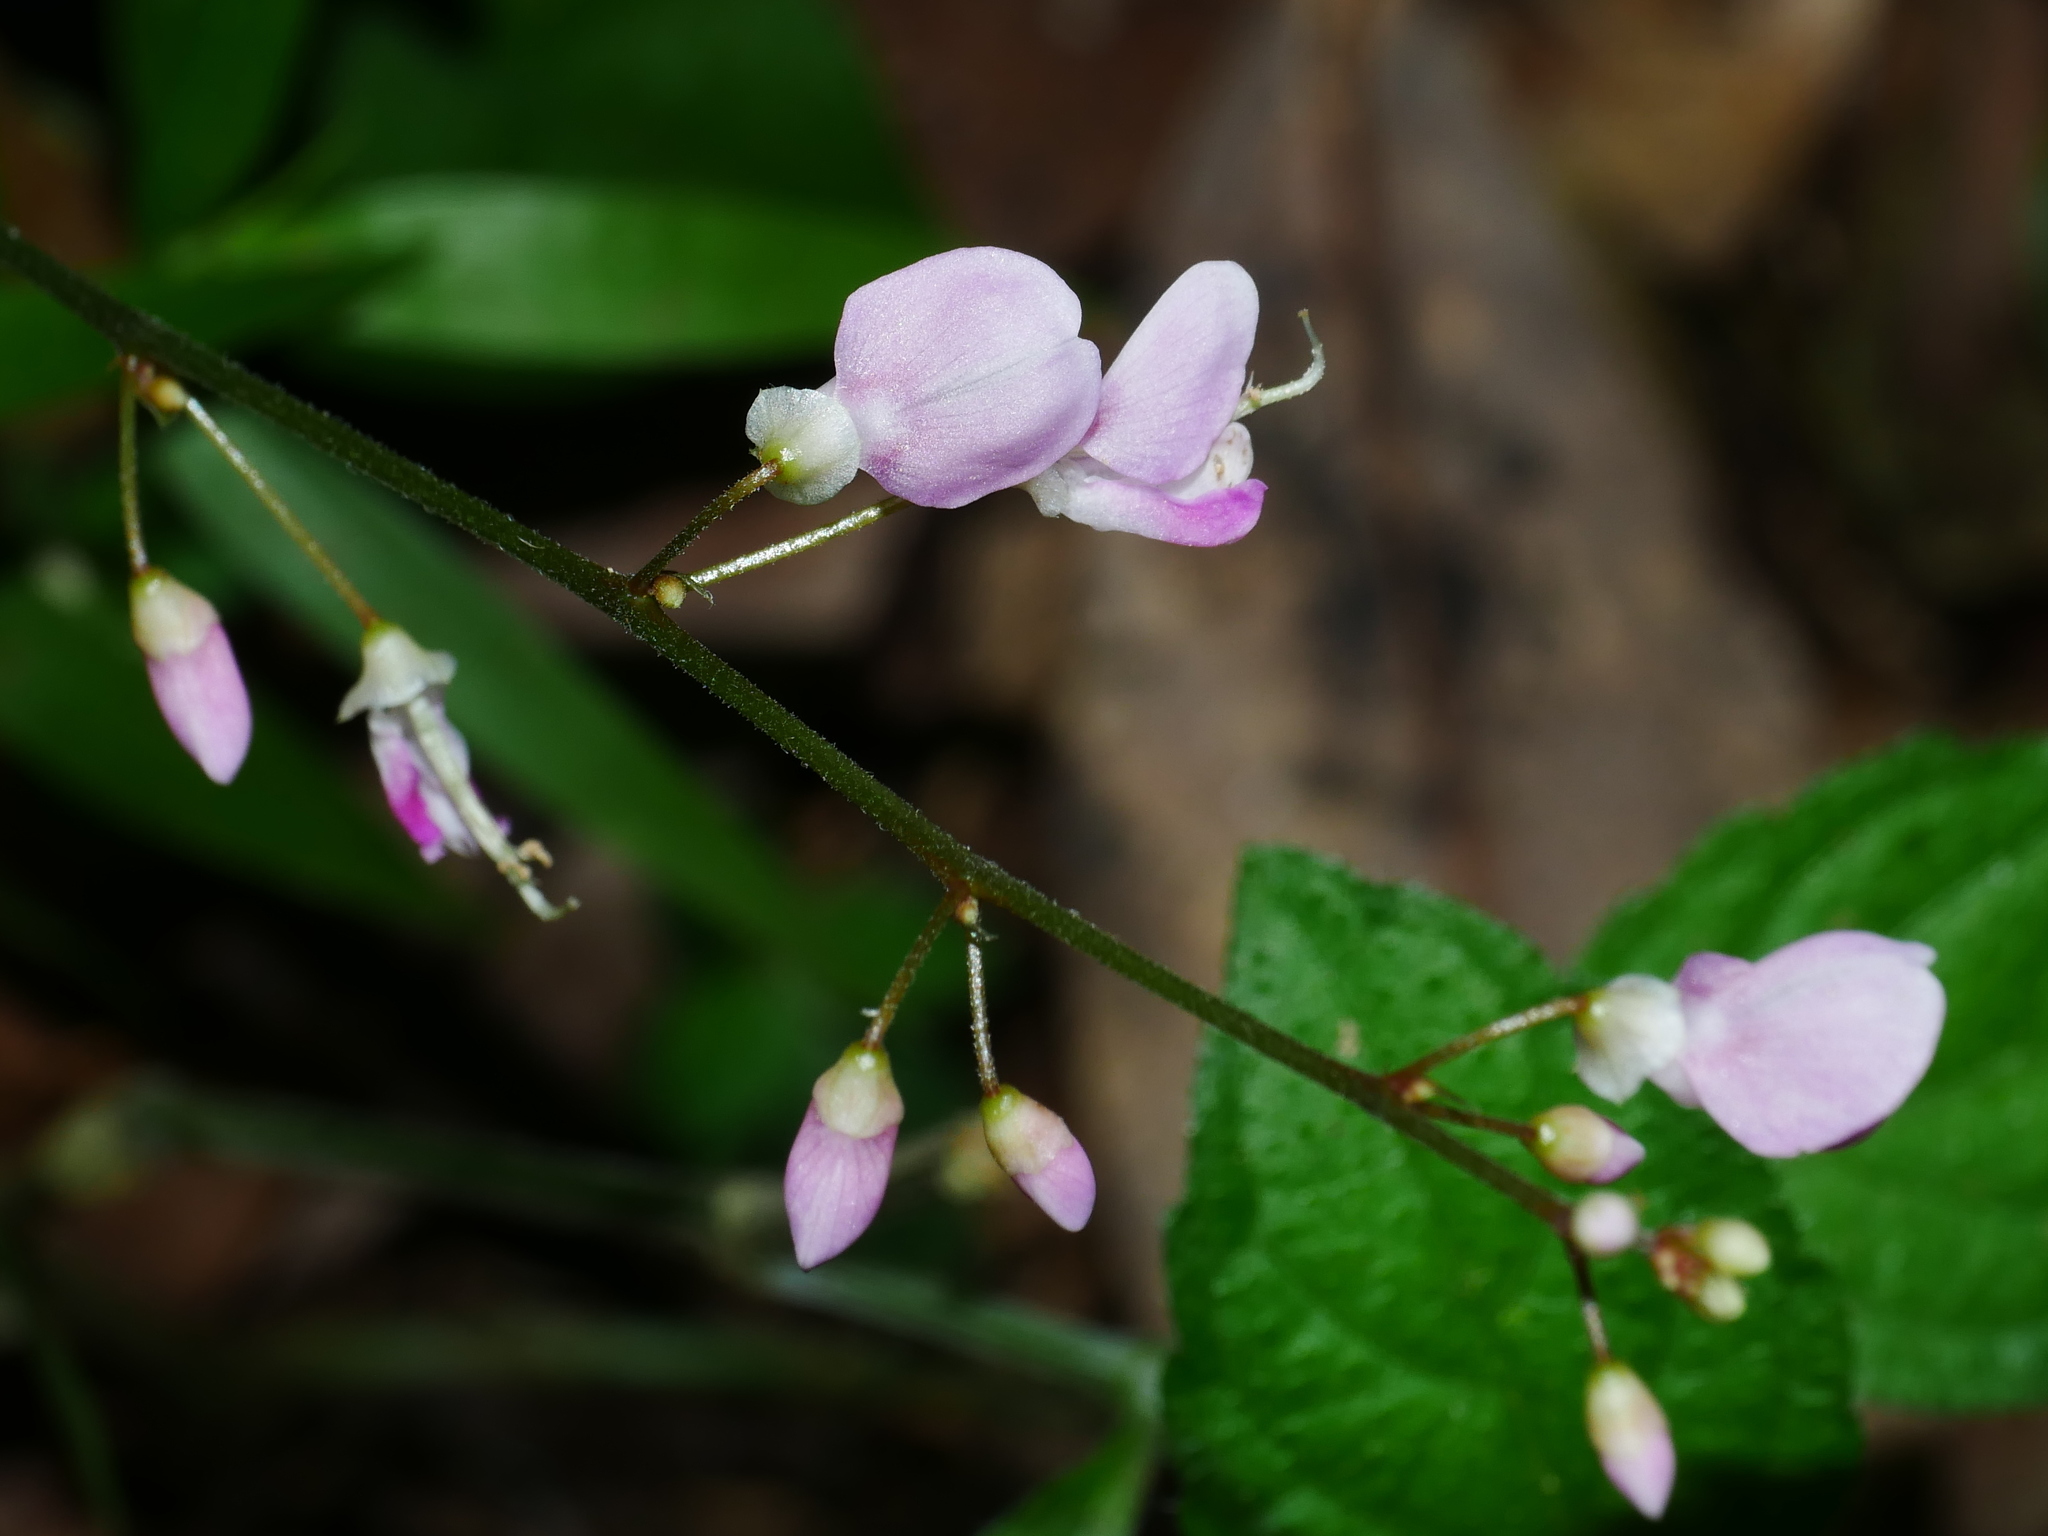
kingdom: Plantae
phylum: Tracheophyta
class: Magnoliopsida
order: Fabales
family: Fabaceae
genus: Hylodesmum
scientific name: Hylodesmum leptopus
